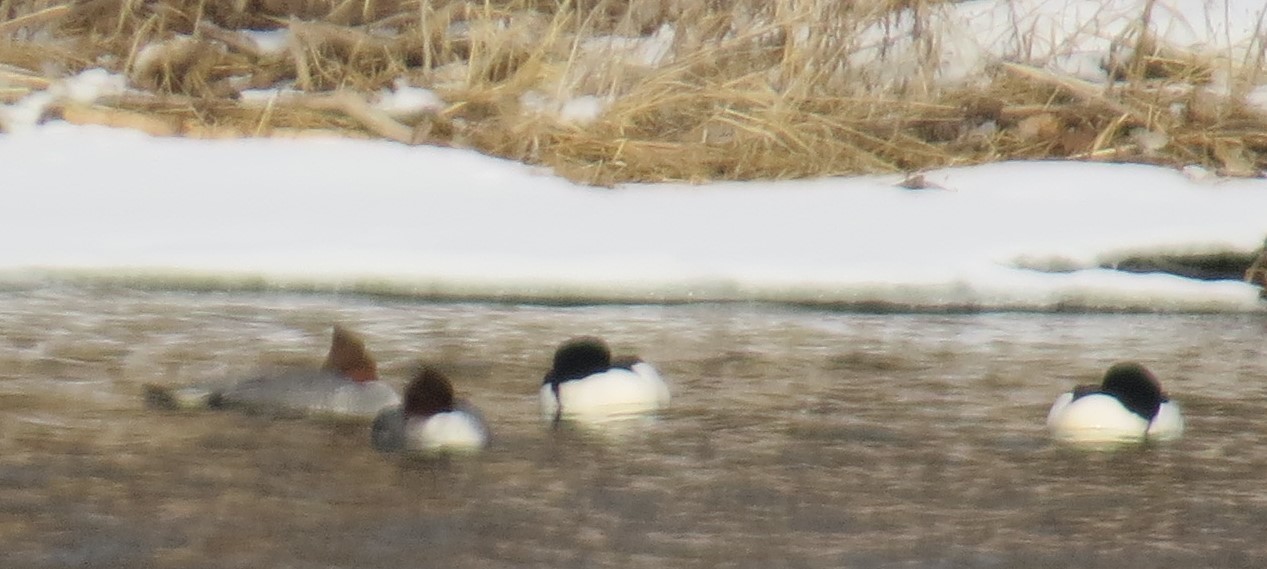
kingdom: Animalia
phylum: Chordata
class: Aves
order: Anseriformes
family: Anatidae
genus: Mergus
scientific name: Mergus merganser
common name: Common merganser
